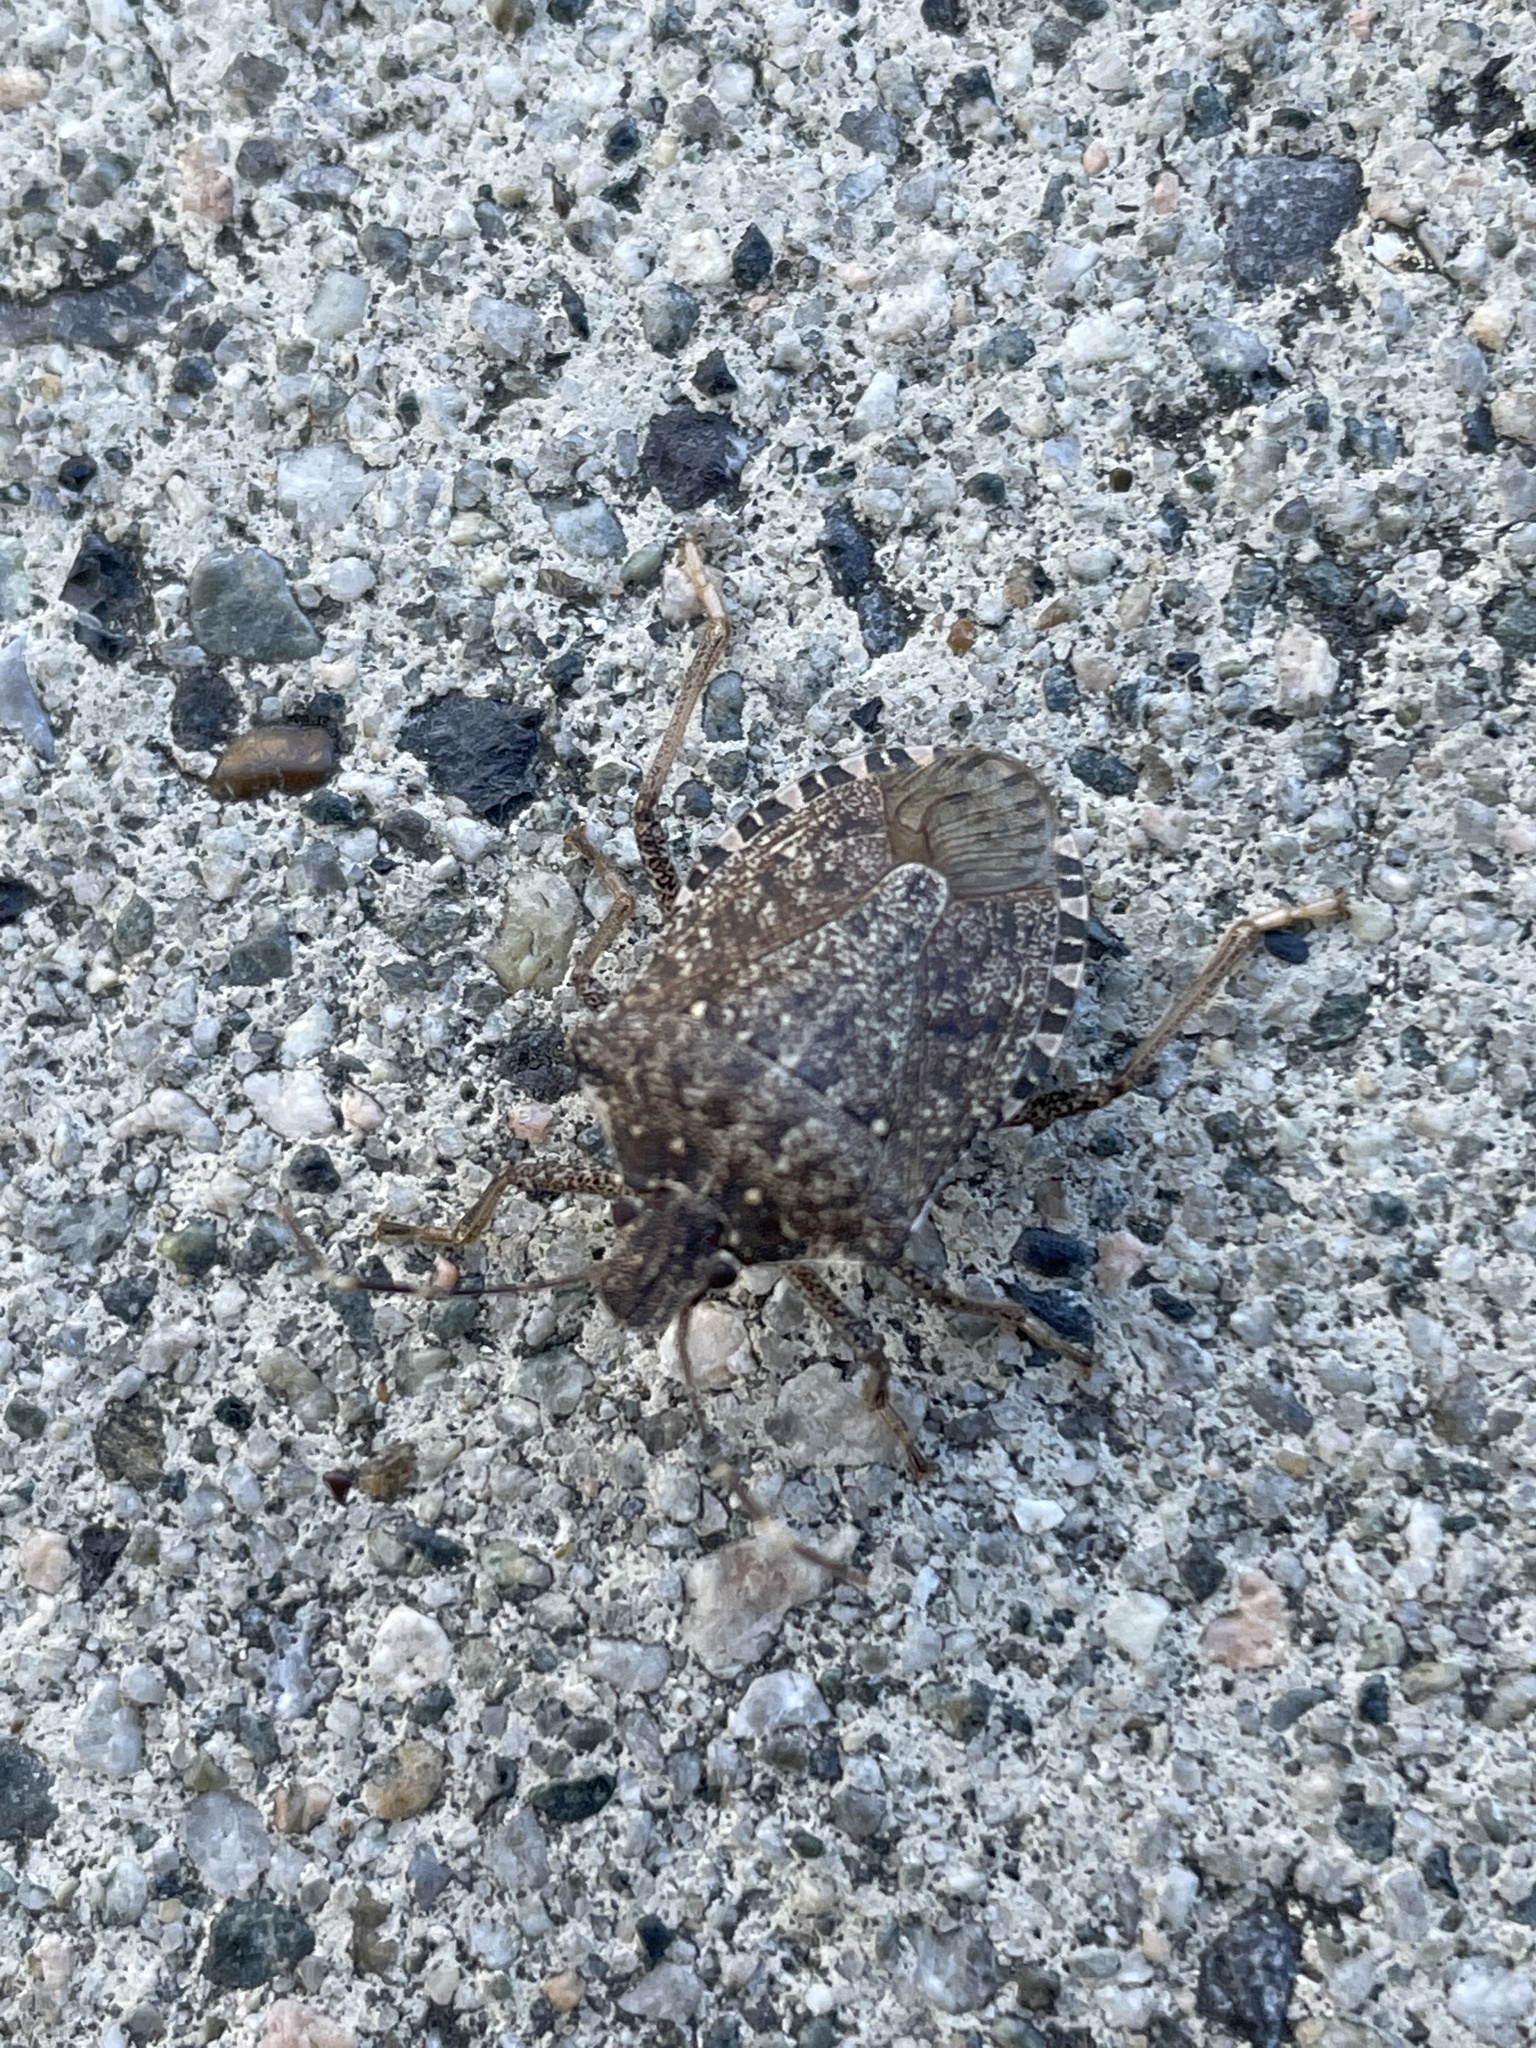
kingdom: Animalia
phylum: Arthropoda
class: Insecta
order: Hemiptera
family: Pentatomidae
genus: Halyomorpha
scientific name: Halyomorpha halys
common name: Brown marmorated stink bug
